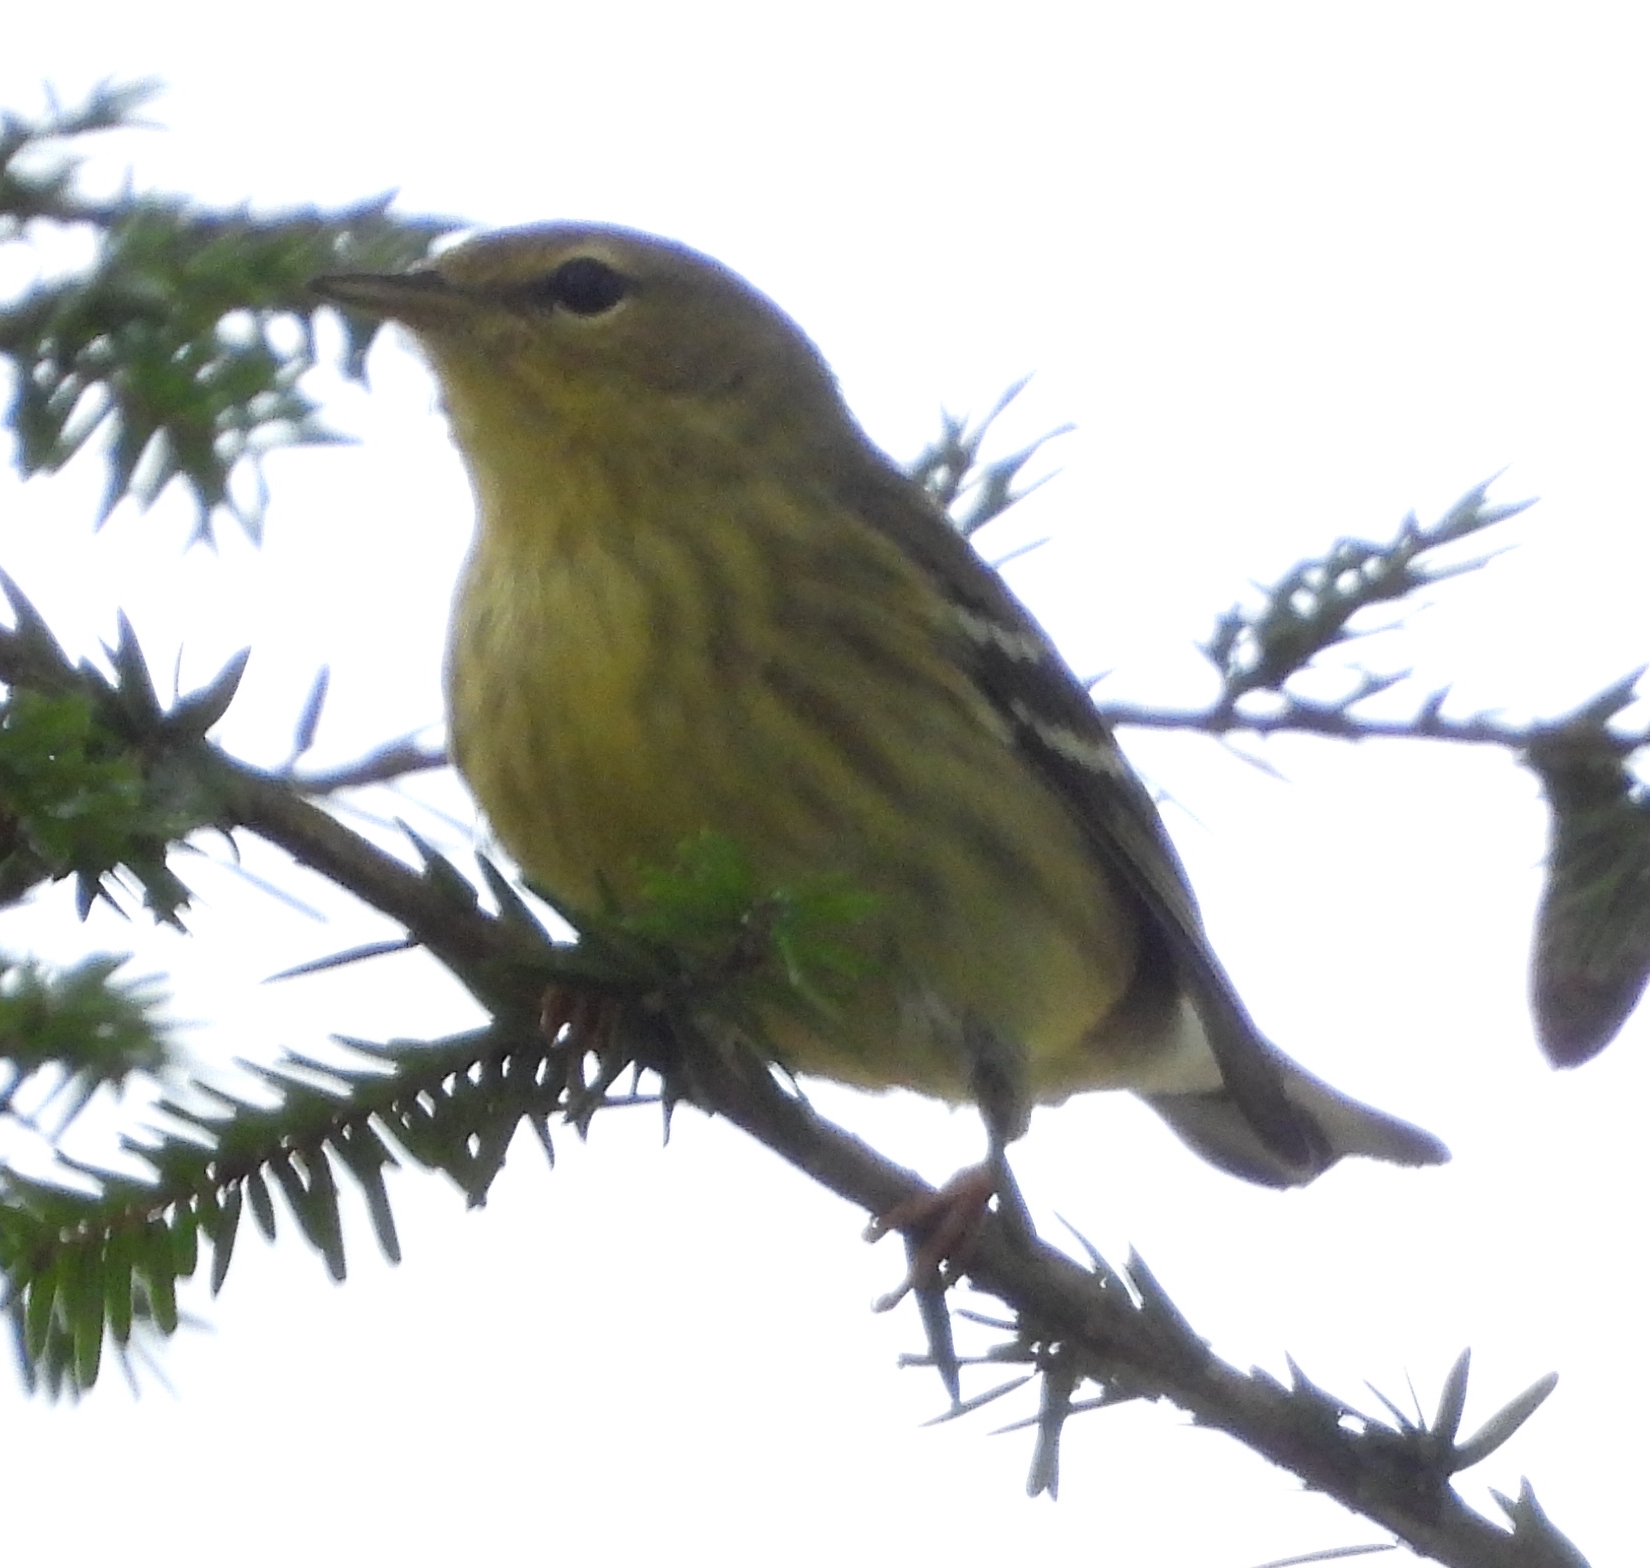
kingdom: Animalia
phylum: Chordata
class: Aves
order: Passeriformes
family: Parulidae
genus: Setophaga
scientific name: Setophaga striata
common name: Blackpoll warbler
